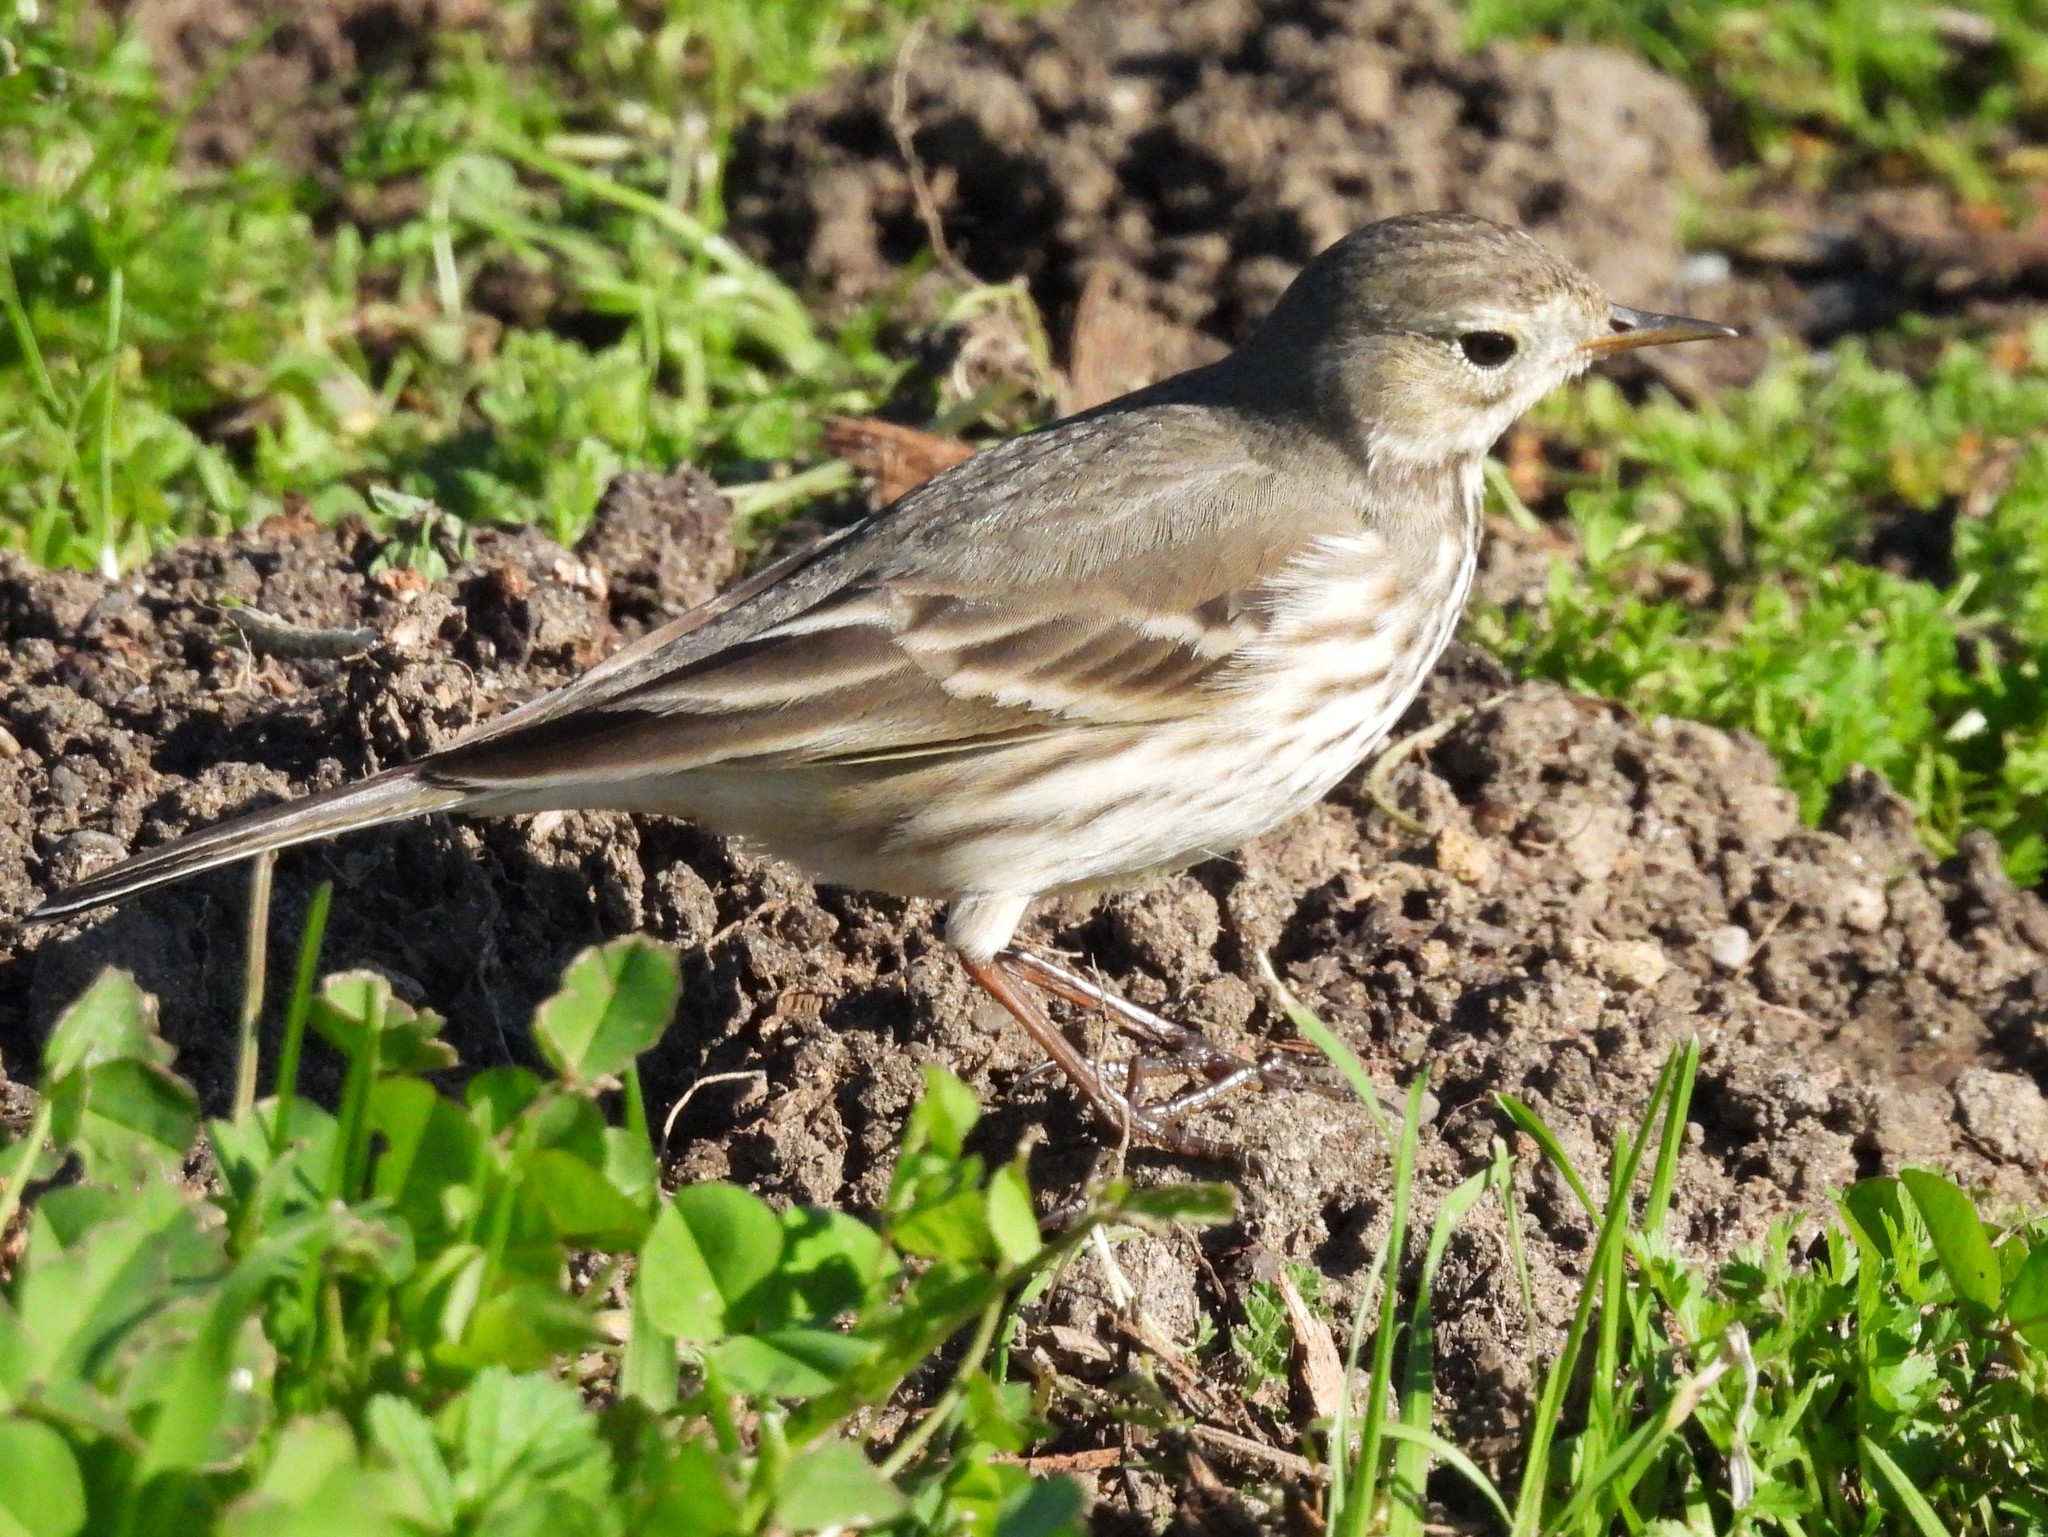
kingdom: Animalia
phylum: Chordata
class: Aves
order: Passeriformes
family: Motacillidae
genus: Anthus
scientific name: Anthus rubescens
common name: Buff-bellied pipit
